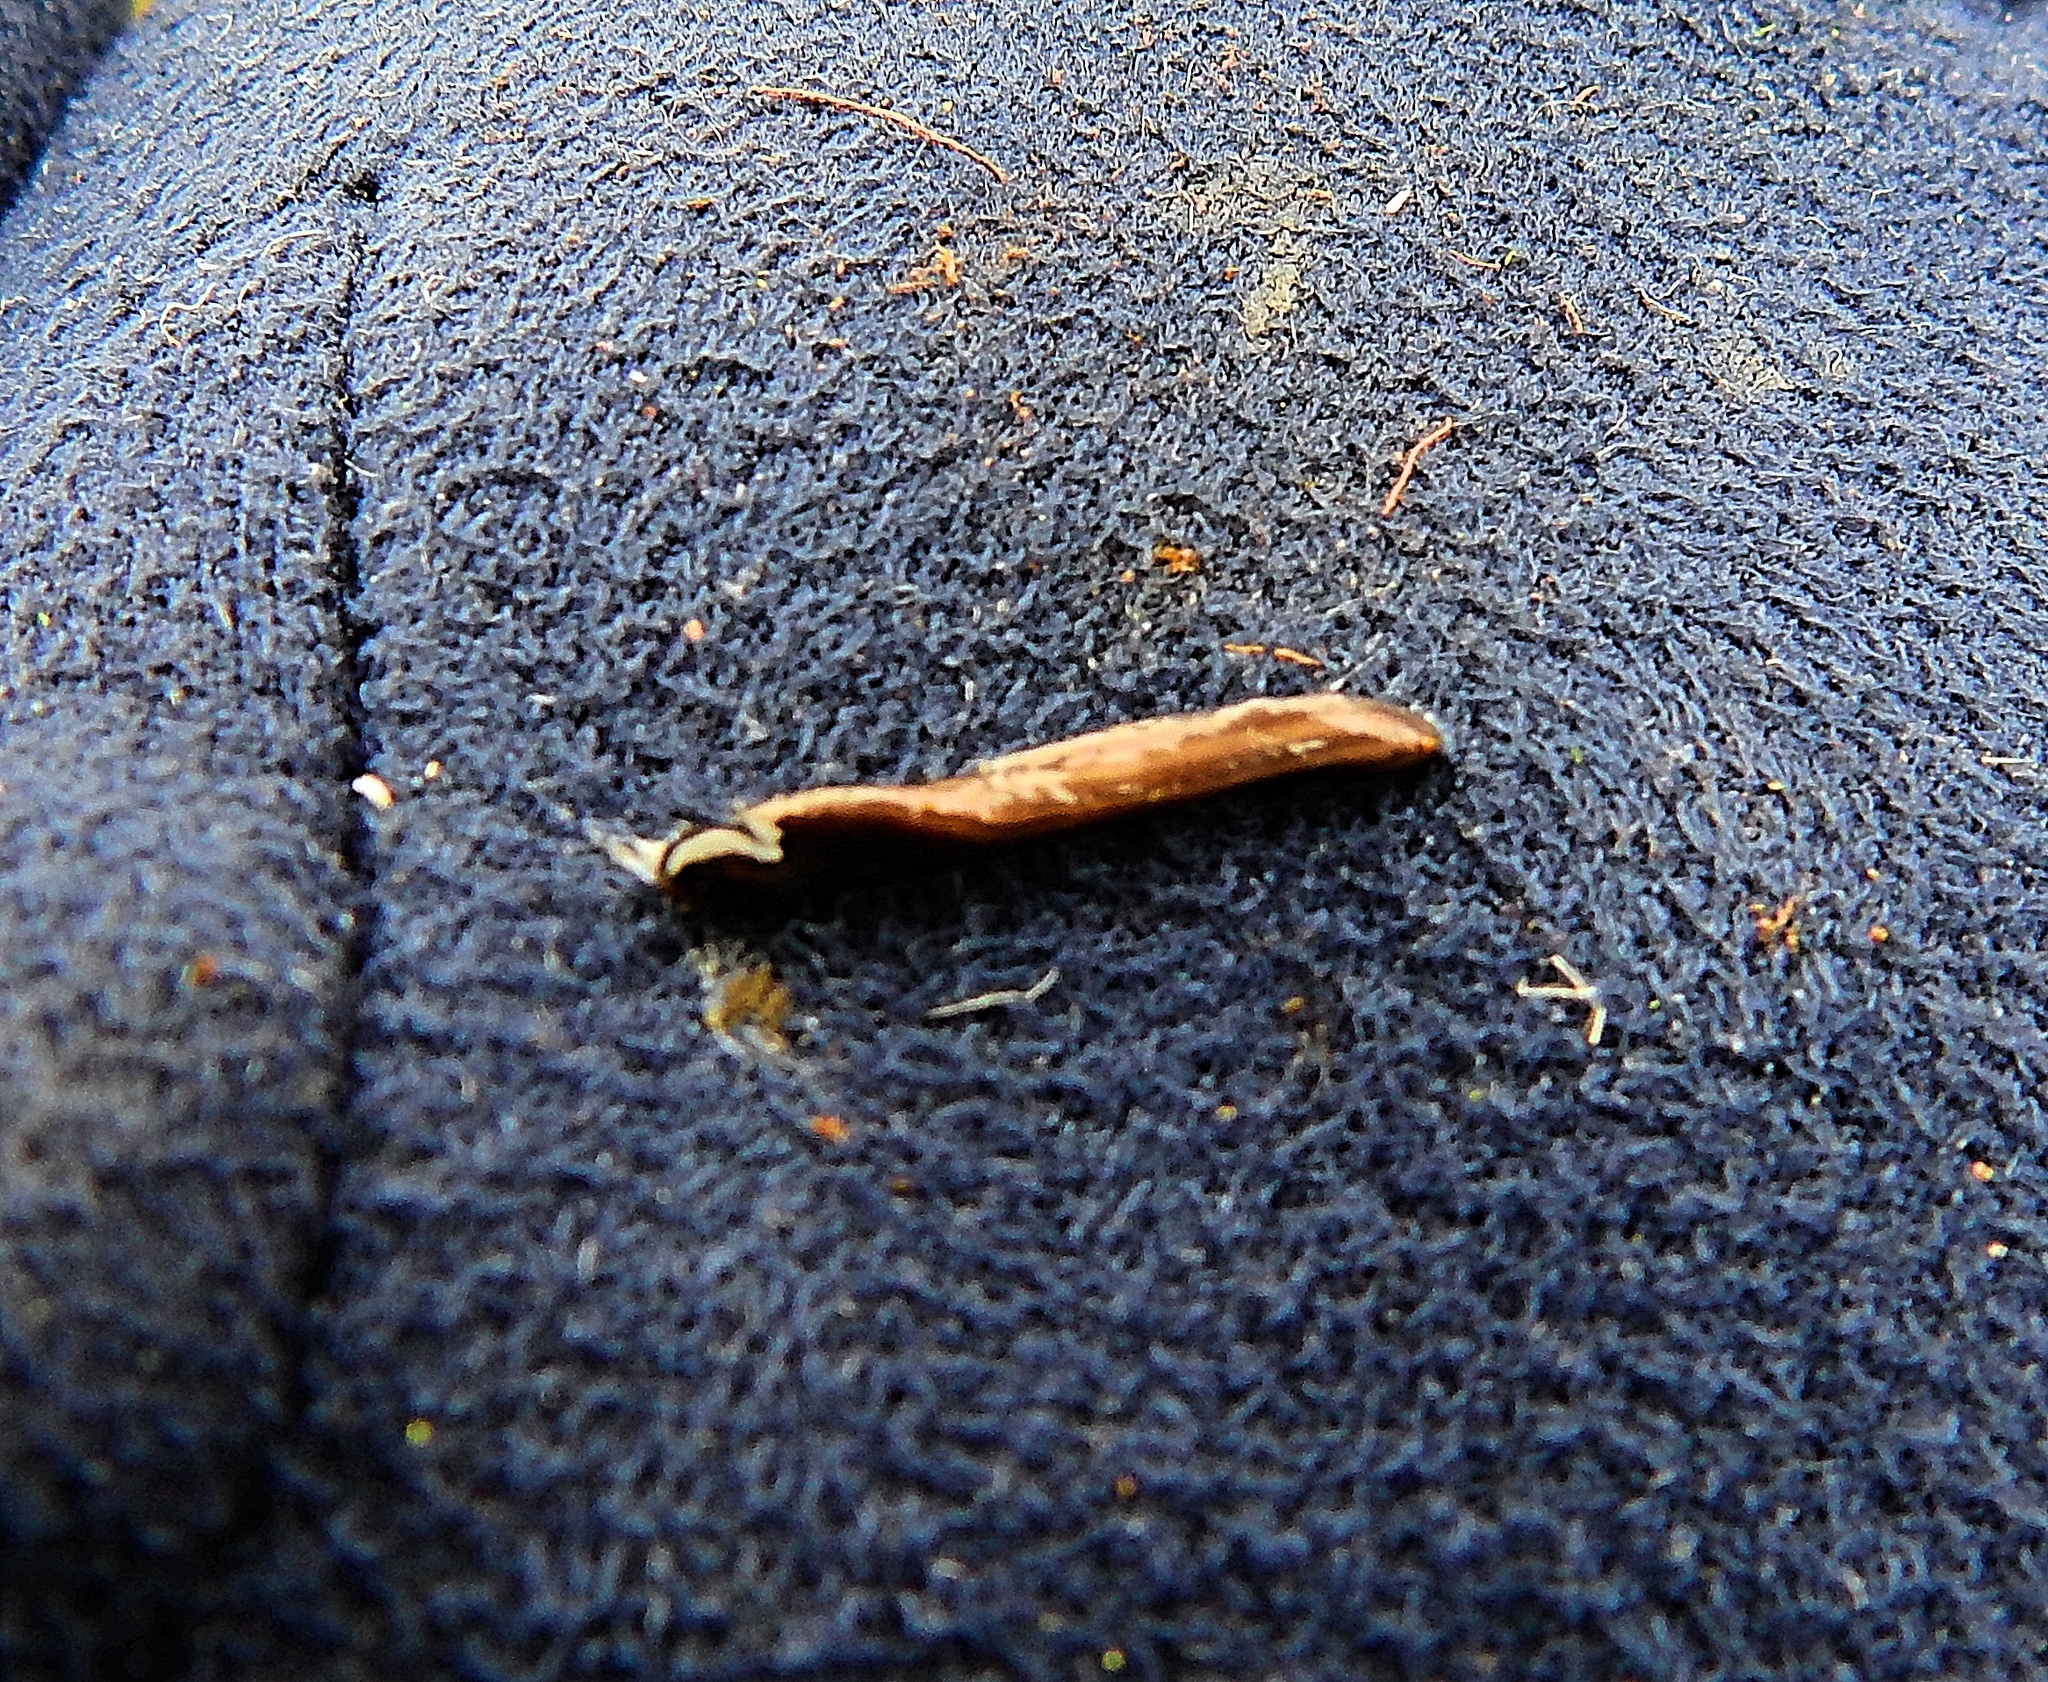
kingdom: Animalia
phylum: Platyhelminthes
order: Tricladida
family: Geoplanidae
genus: Parakontikia
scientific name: Parakontikia ventrolineata
